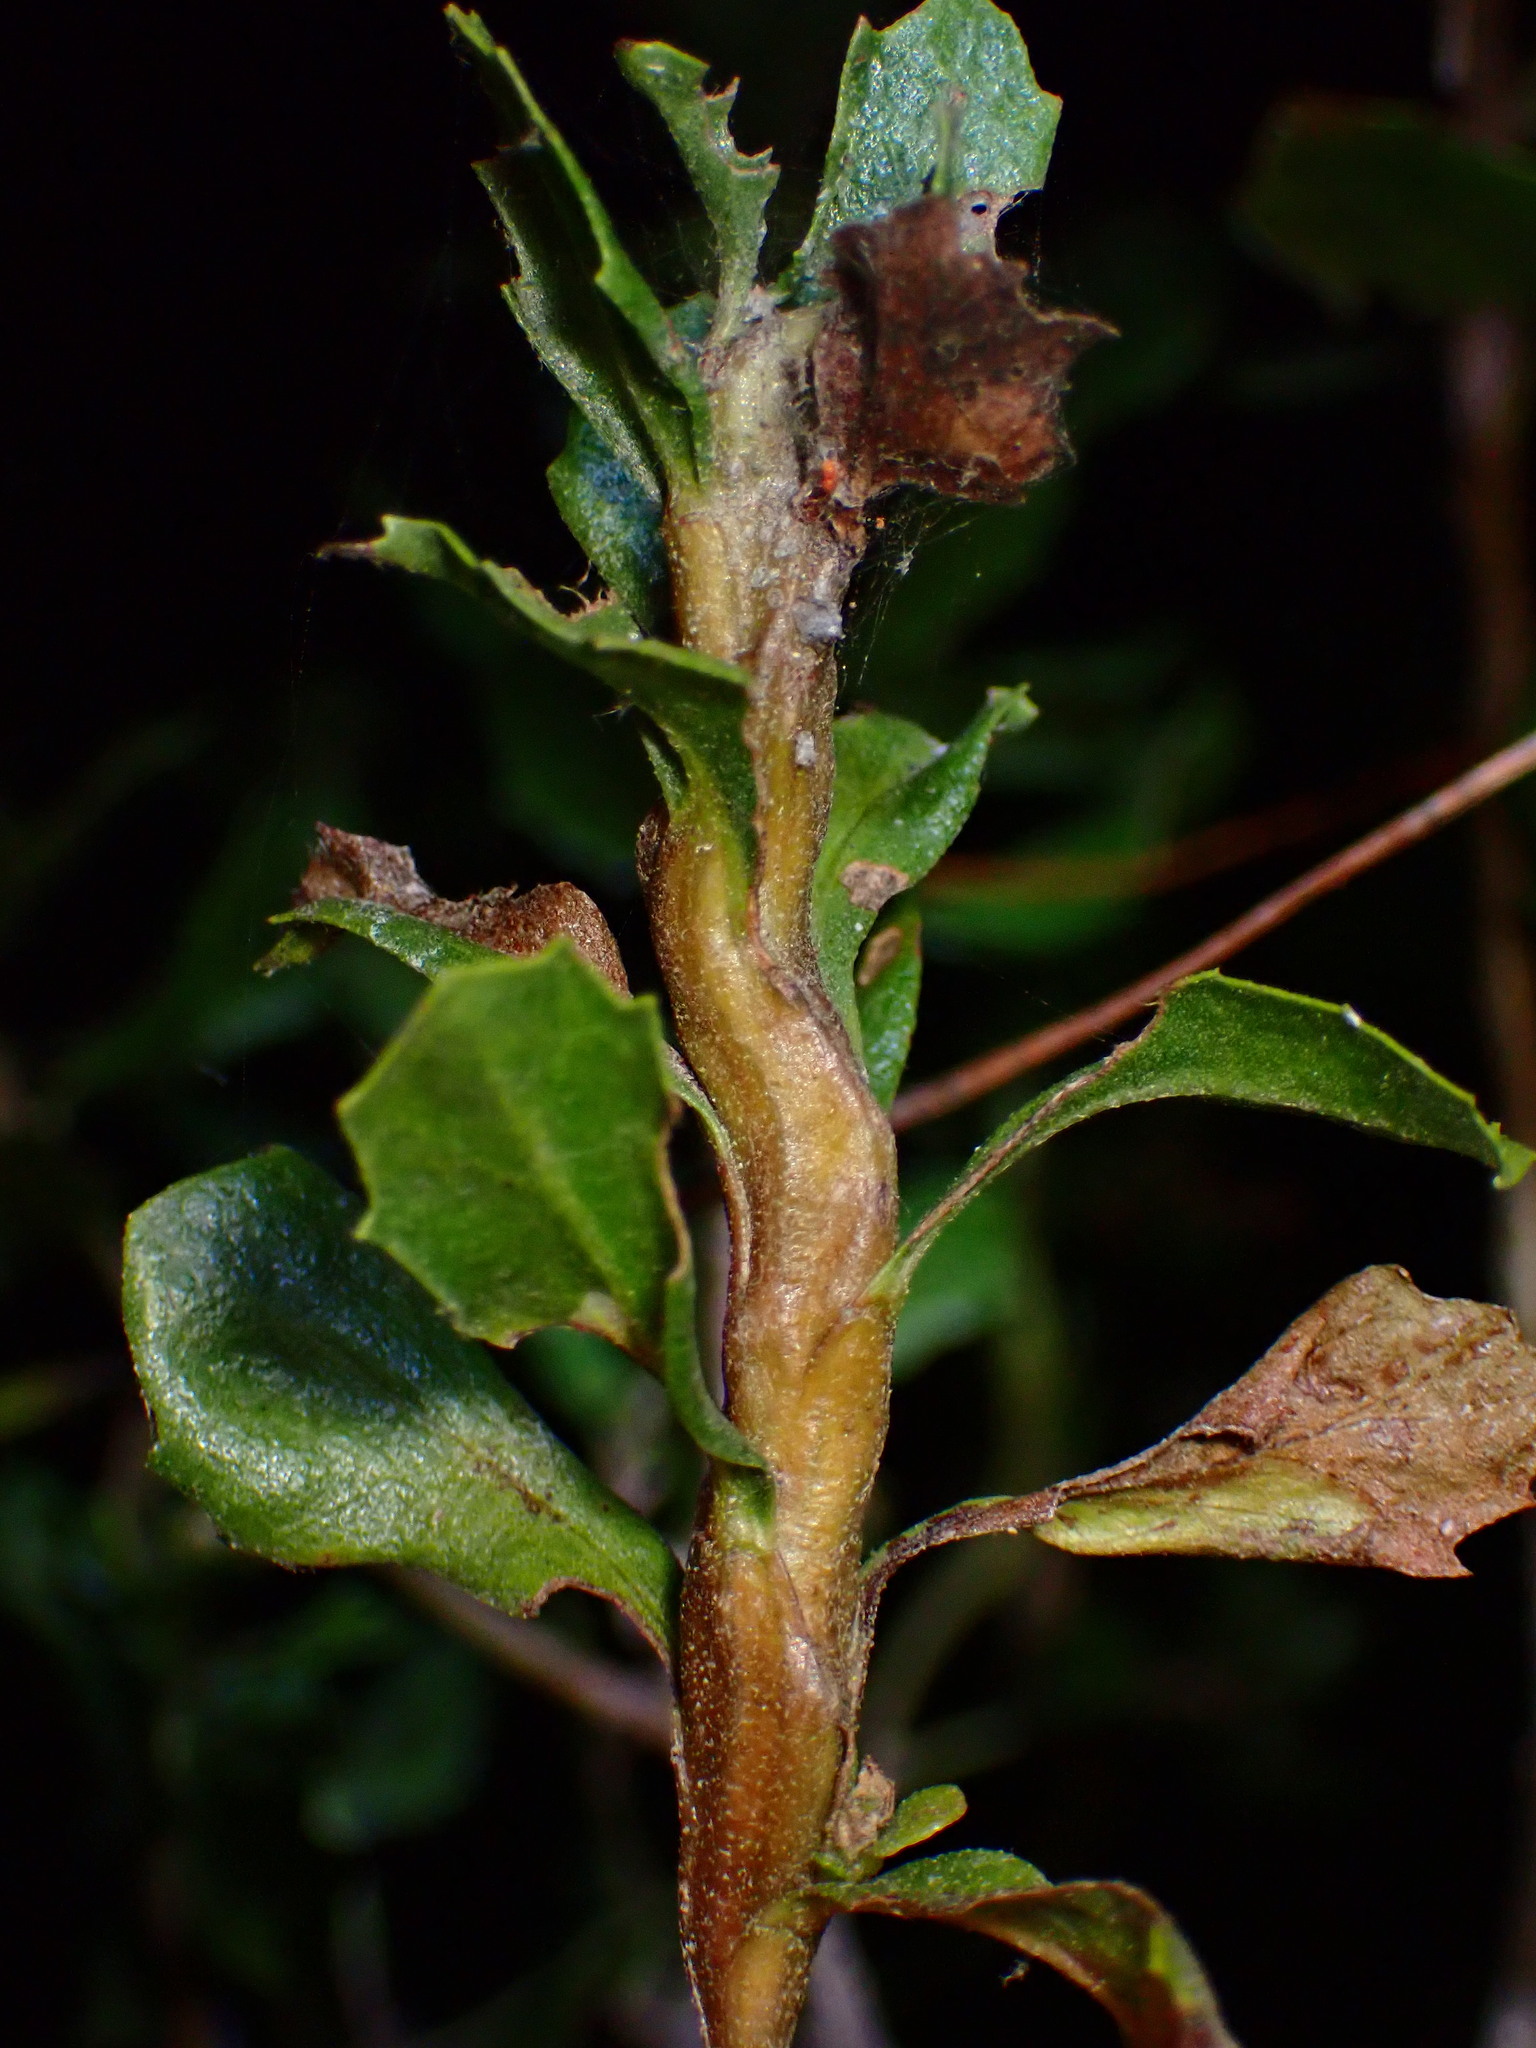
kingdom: Animalia
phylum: Arthropoda
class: Insecta
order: Lepidoptera
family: Gelechiidae
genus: Gnorimoschema
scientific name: Gnorimoschema baccharisella
